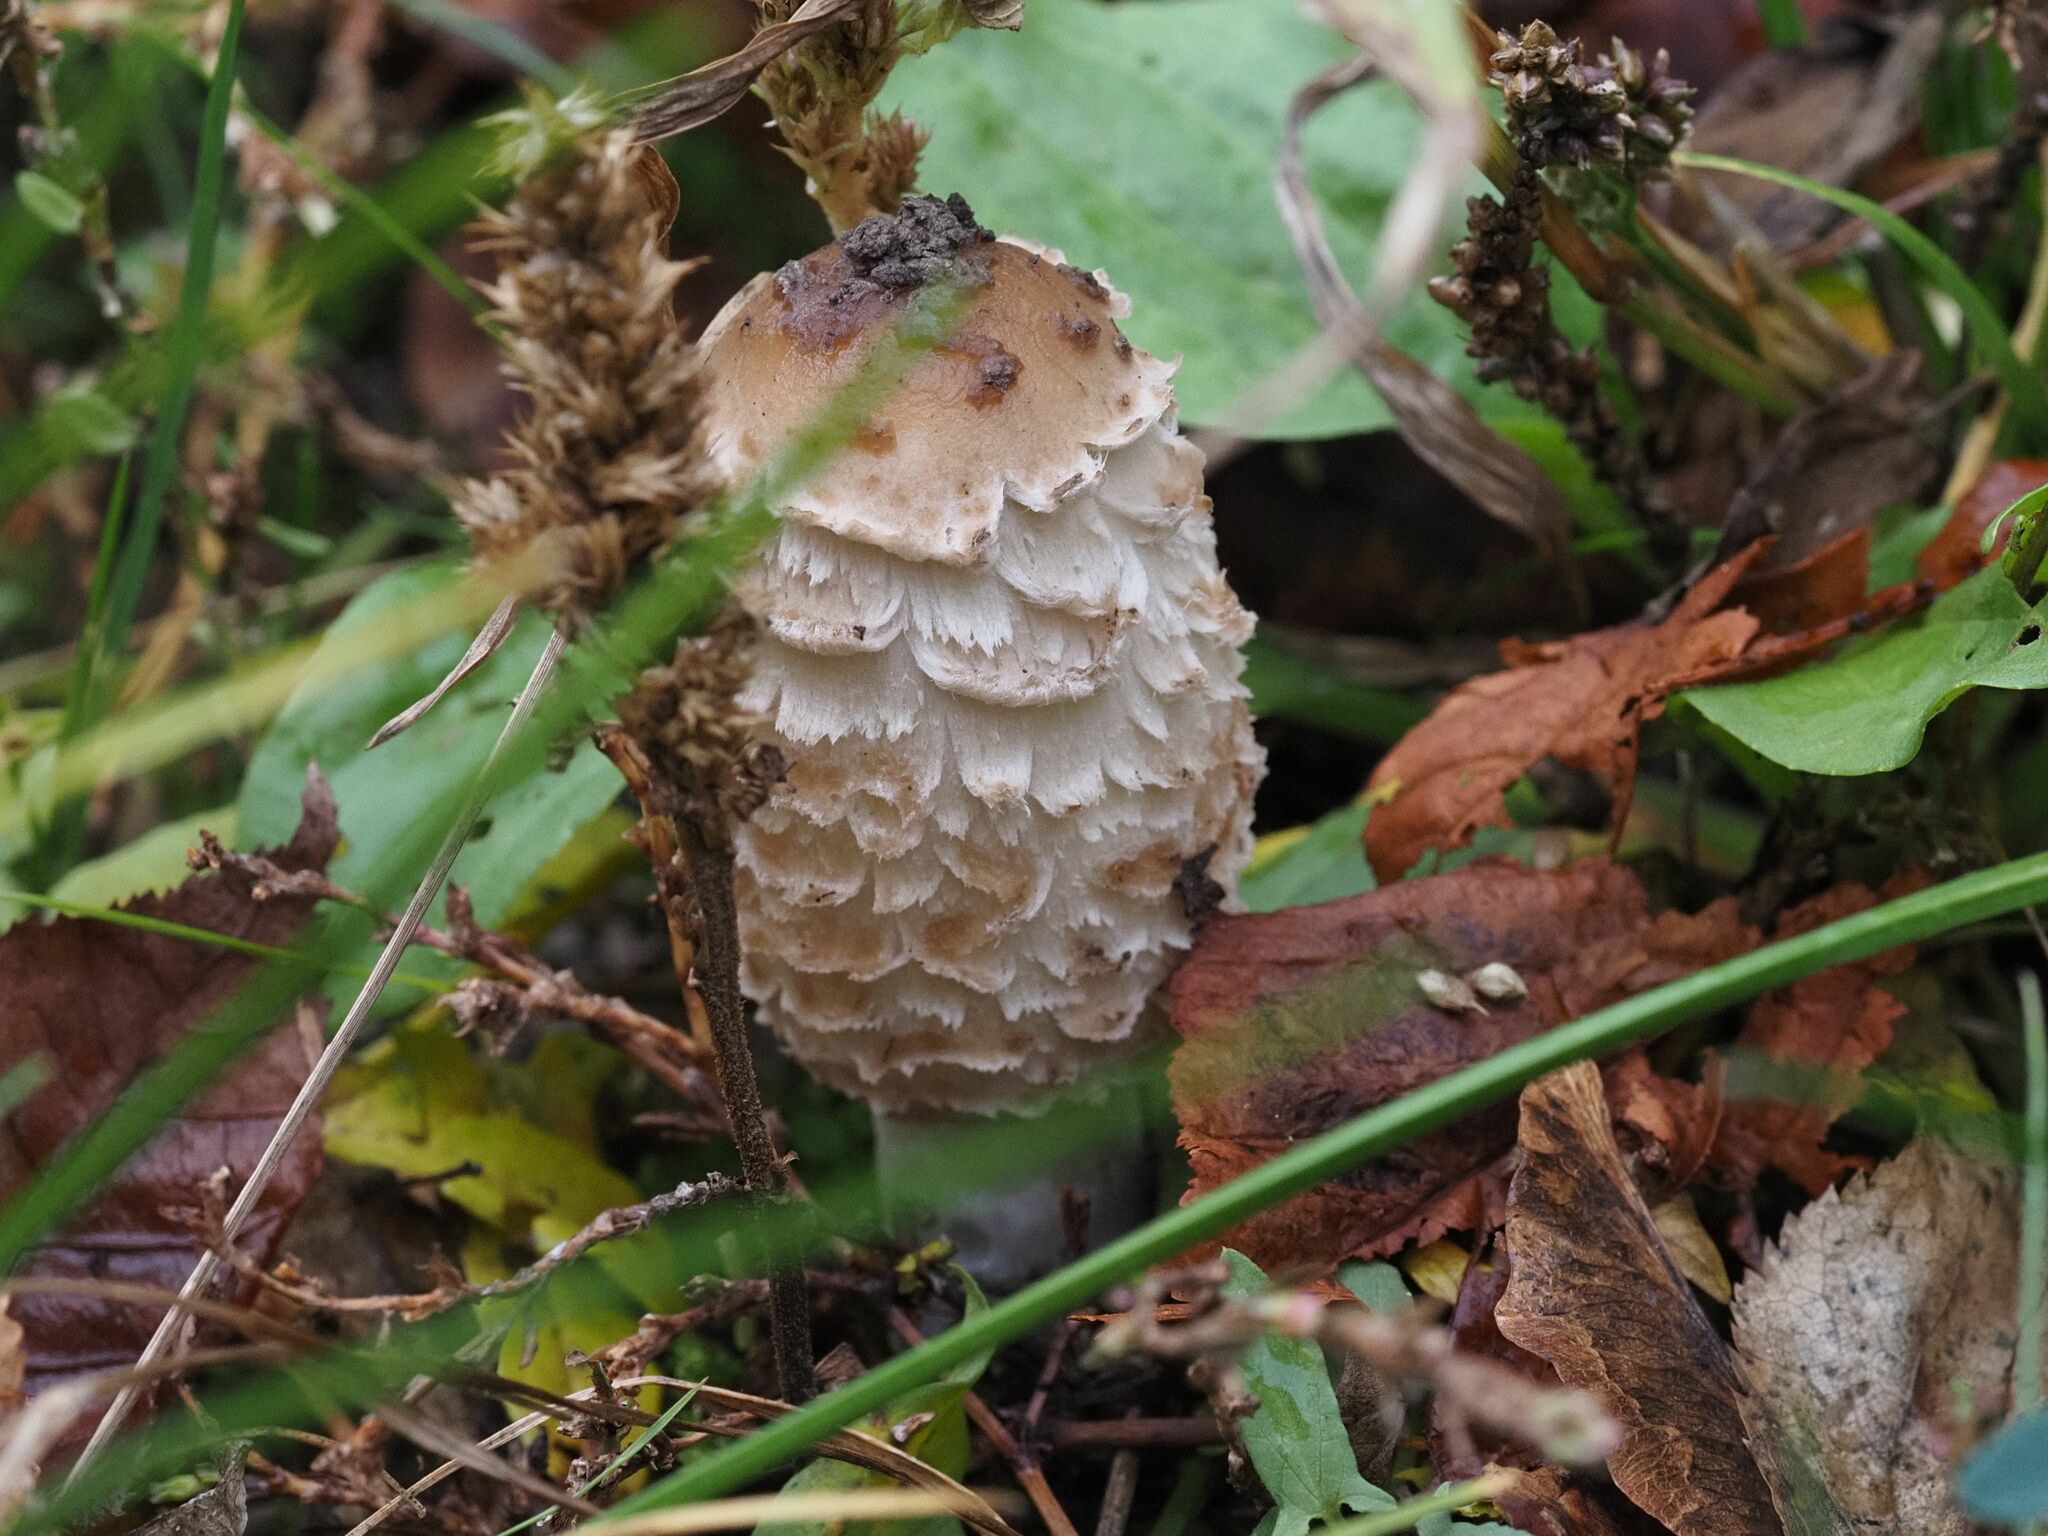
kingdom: Fungi
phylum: Basidiomycota
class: Agaricomycetes
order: Agaricales
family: Agaricaceae
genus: Coprinus
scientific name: Coprinus comatus
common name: Lawyer's wig
